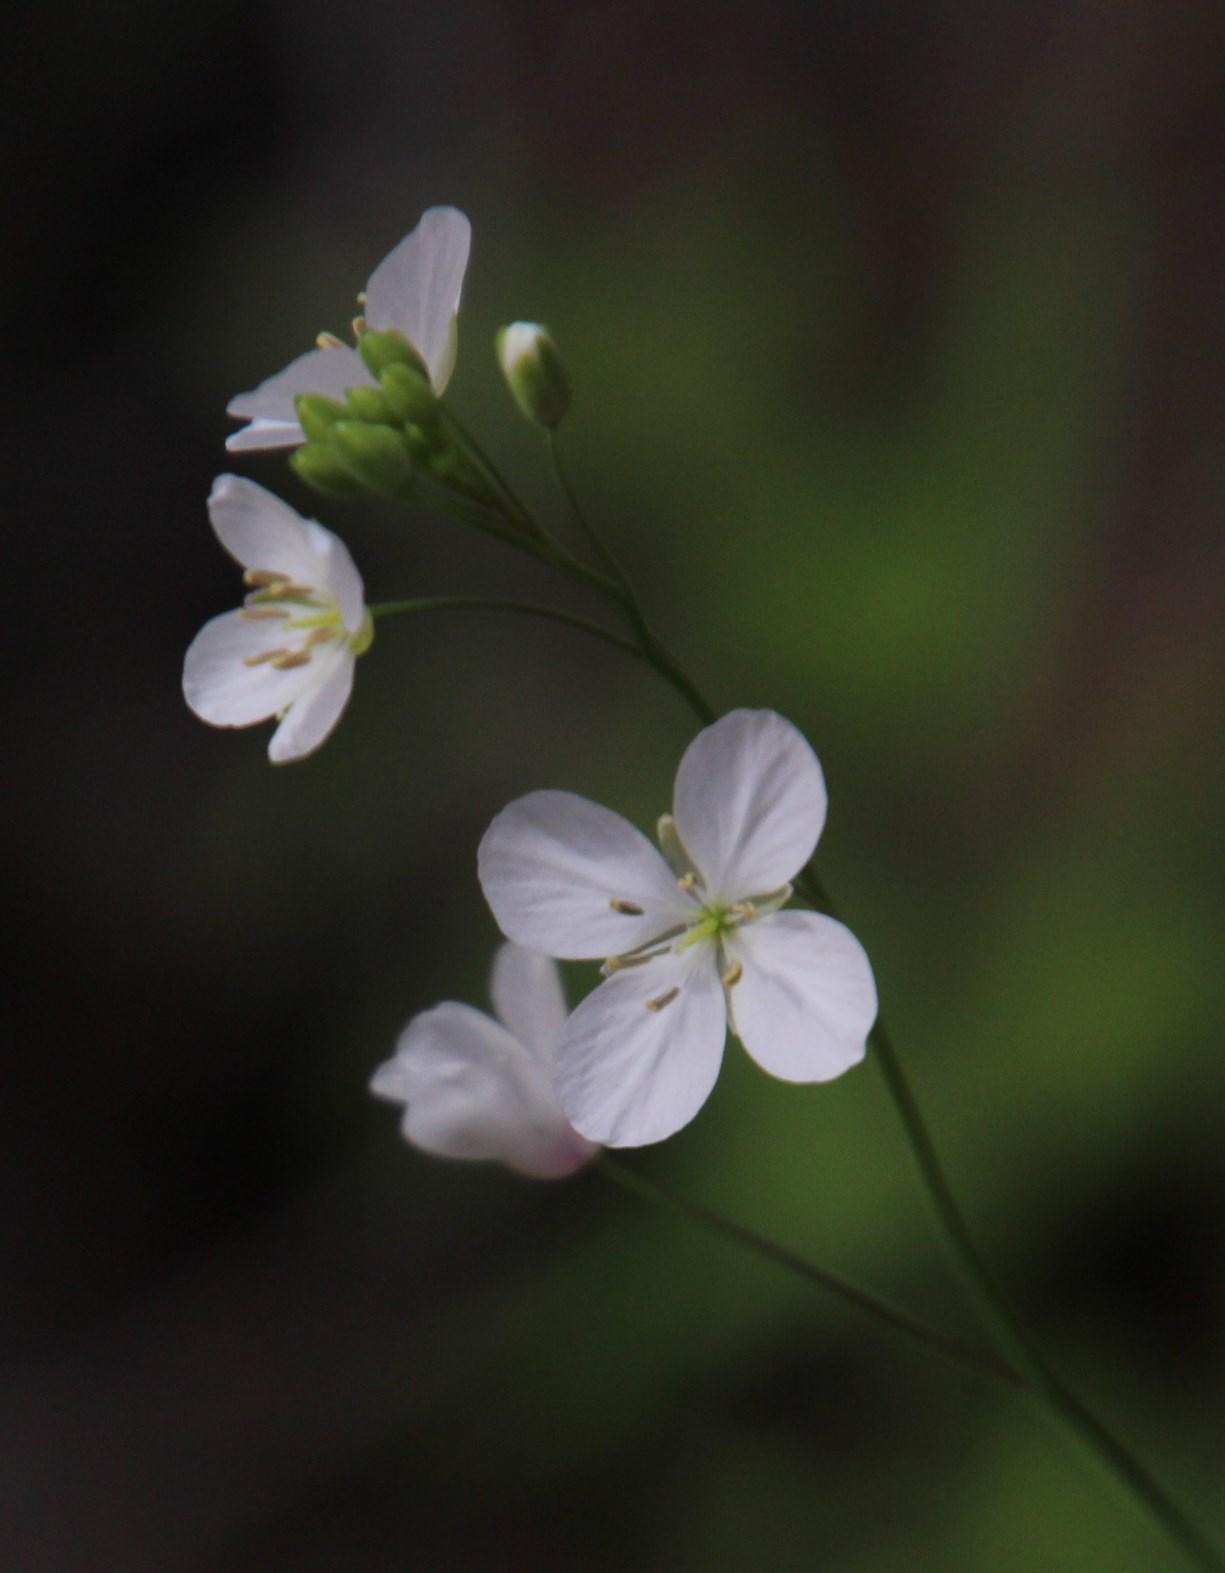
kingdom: Plantae
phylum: Tracheophyta
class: Magnoliopsida
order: Brassicales
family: Brassicaceae
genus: Heliophila
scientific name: Heliophila amplexicaulis
